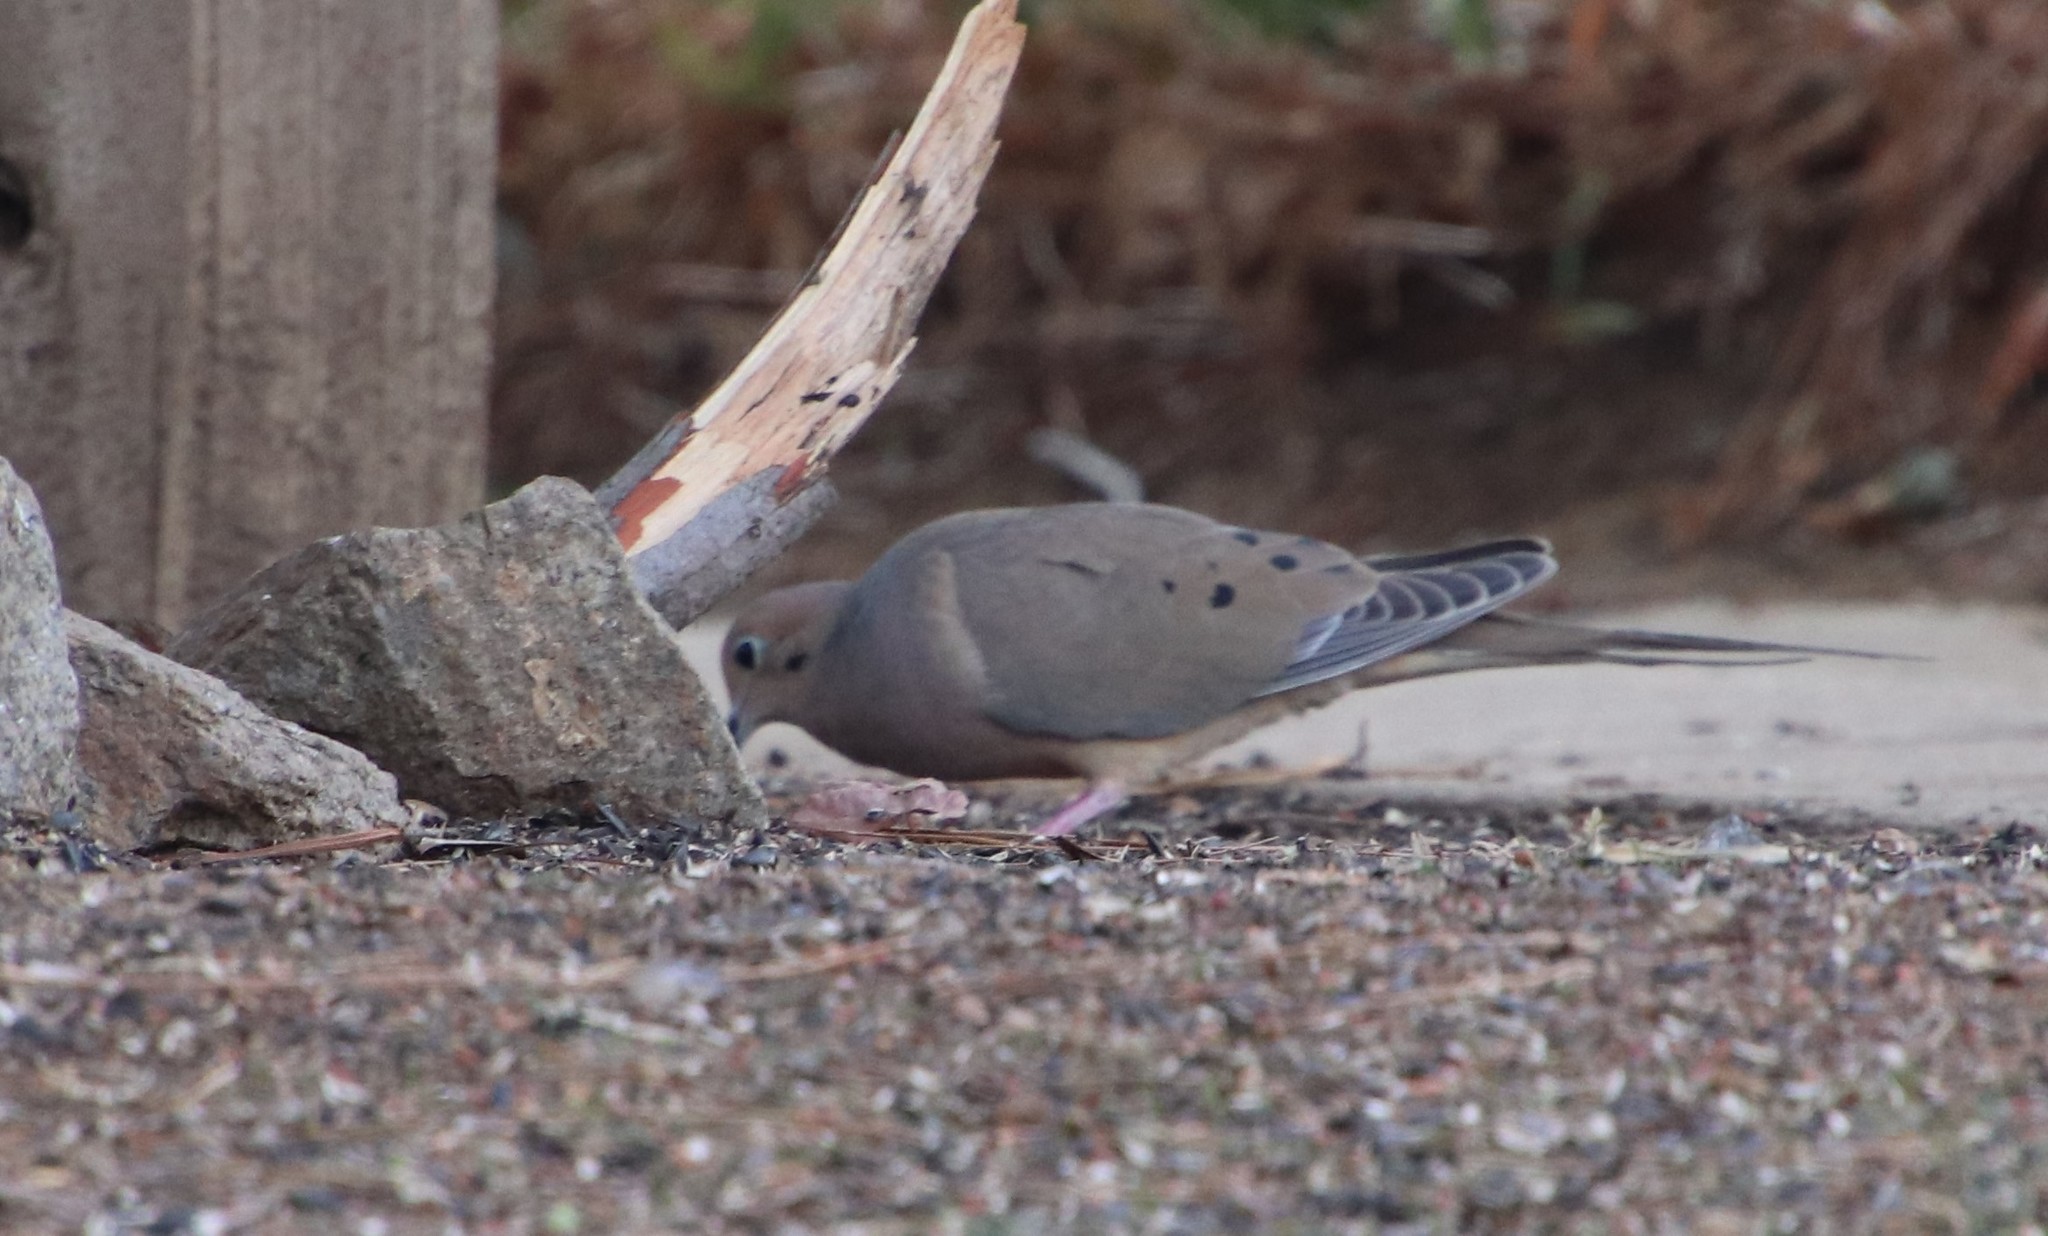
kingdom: Animalia
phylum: Chordata
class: Aves
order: Columbiformes
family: Columbidae
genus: Zenaida
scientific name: Zenaida macroura
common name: Mourning dove
